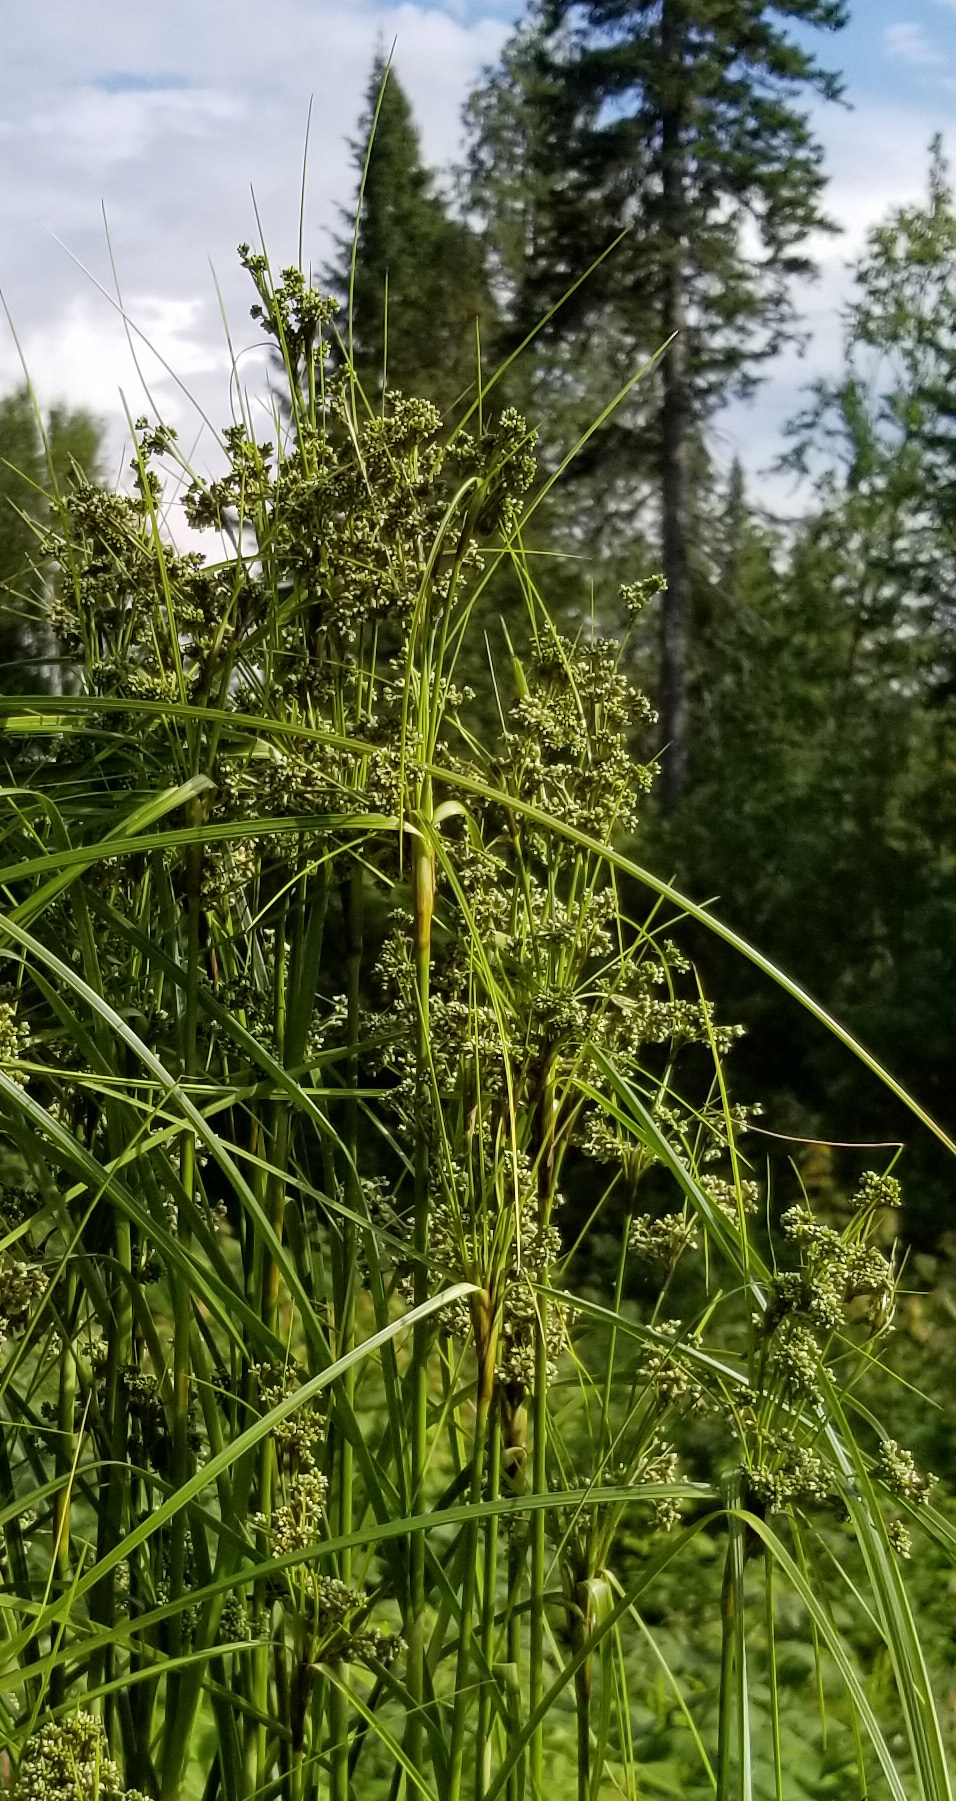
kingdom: Plantae
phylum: Tracheophyta
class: Liliopsida
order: Poales
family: Cyperaceae
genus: Scirpus
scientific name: Scirpus cyperinus
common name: Black-sheathed bulrush
